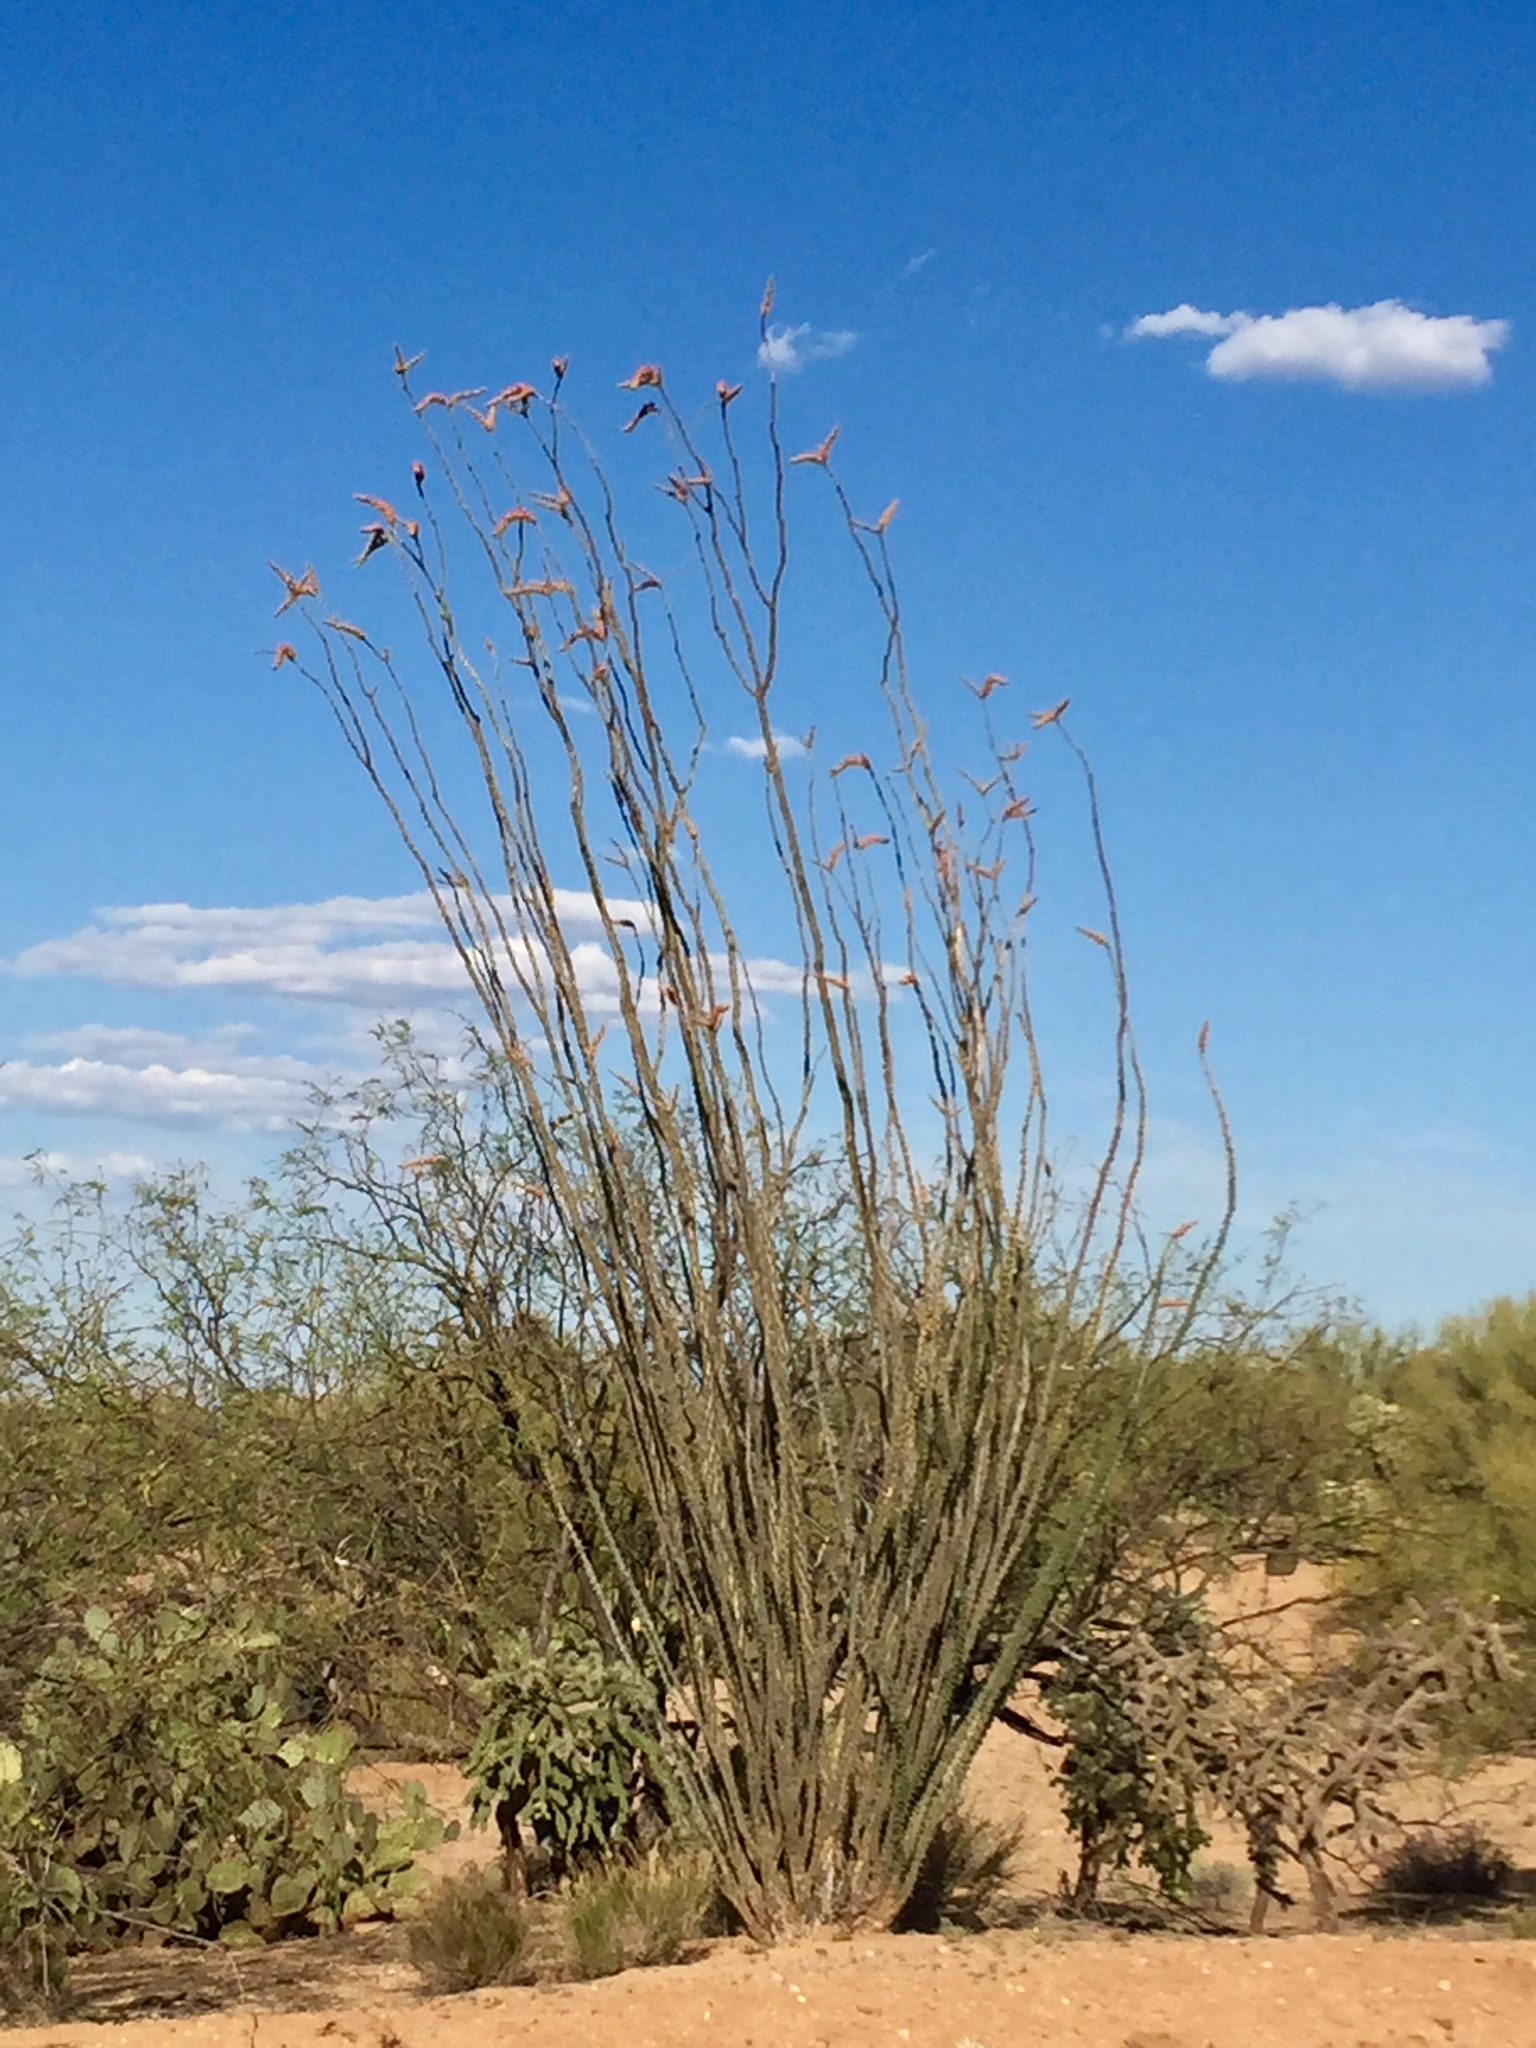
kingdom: Plantae
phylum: Tracheophyta
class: Magnoliopsida
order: Ericales
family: Fouquieriaceae
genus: Fouquieria
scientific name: Fouquieria splendens
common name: Vine-cactus
